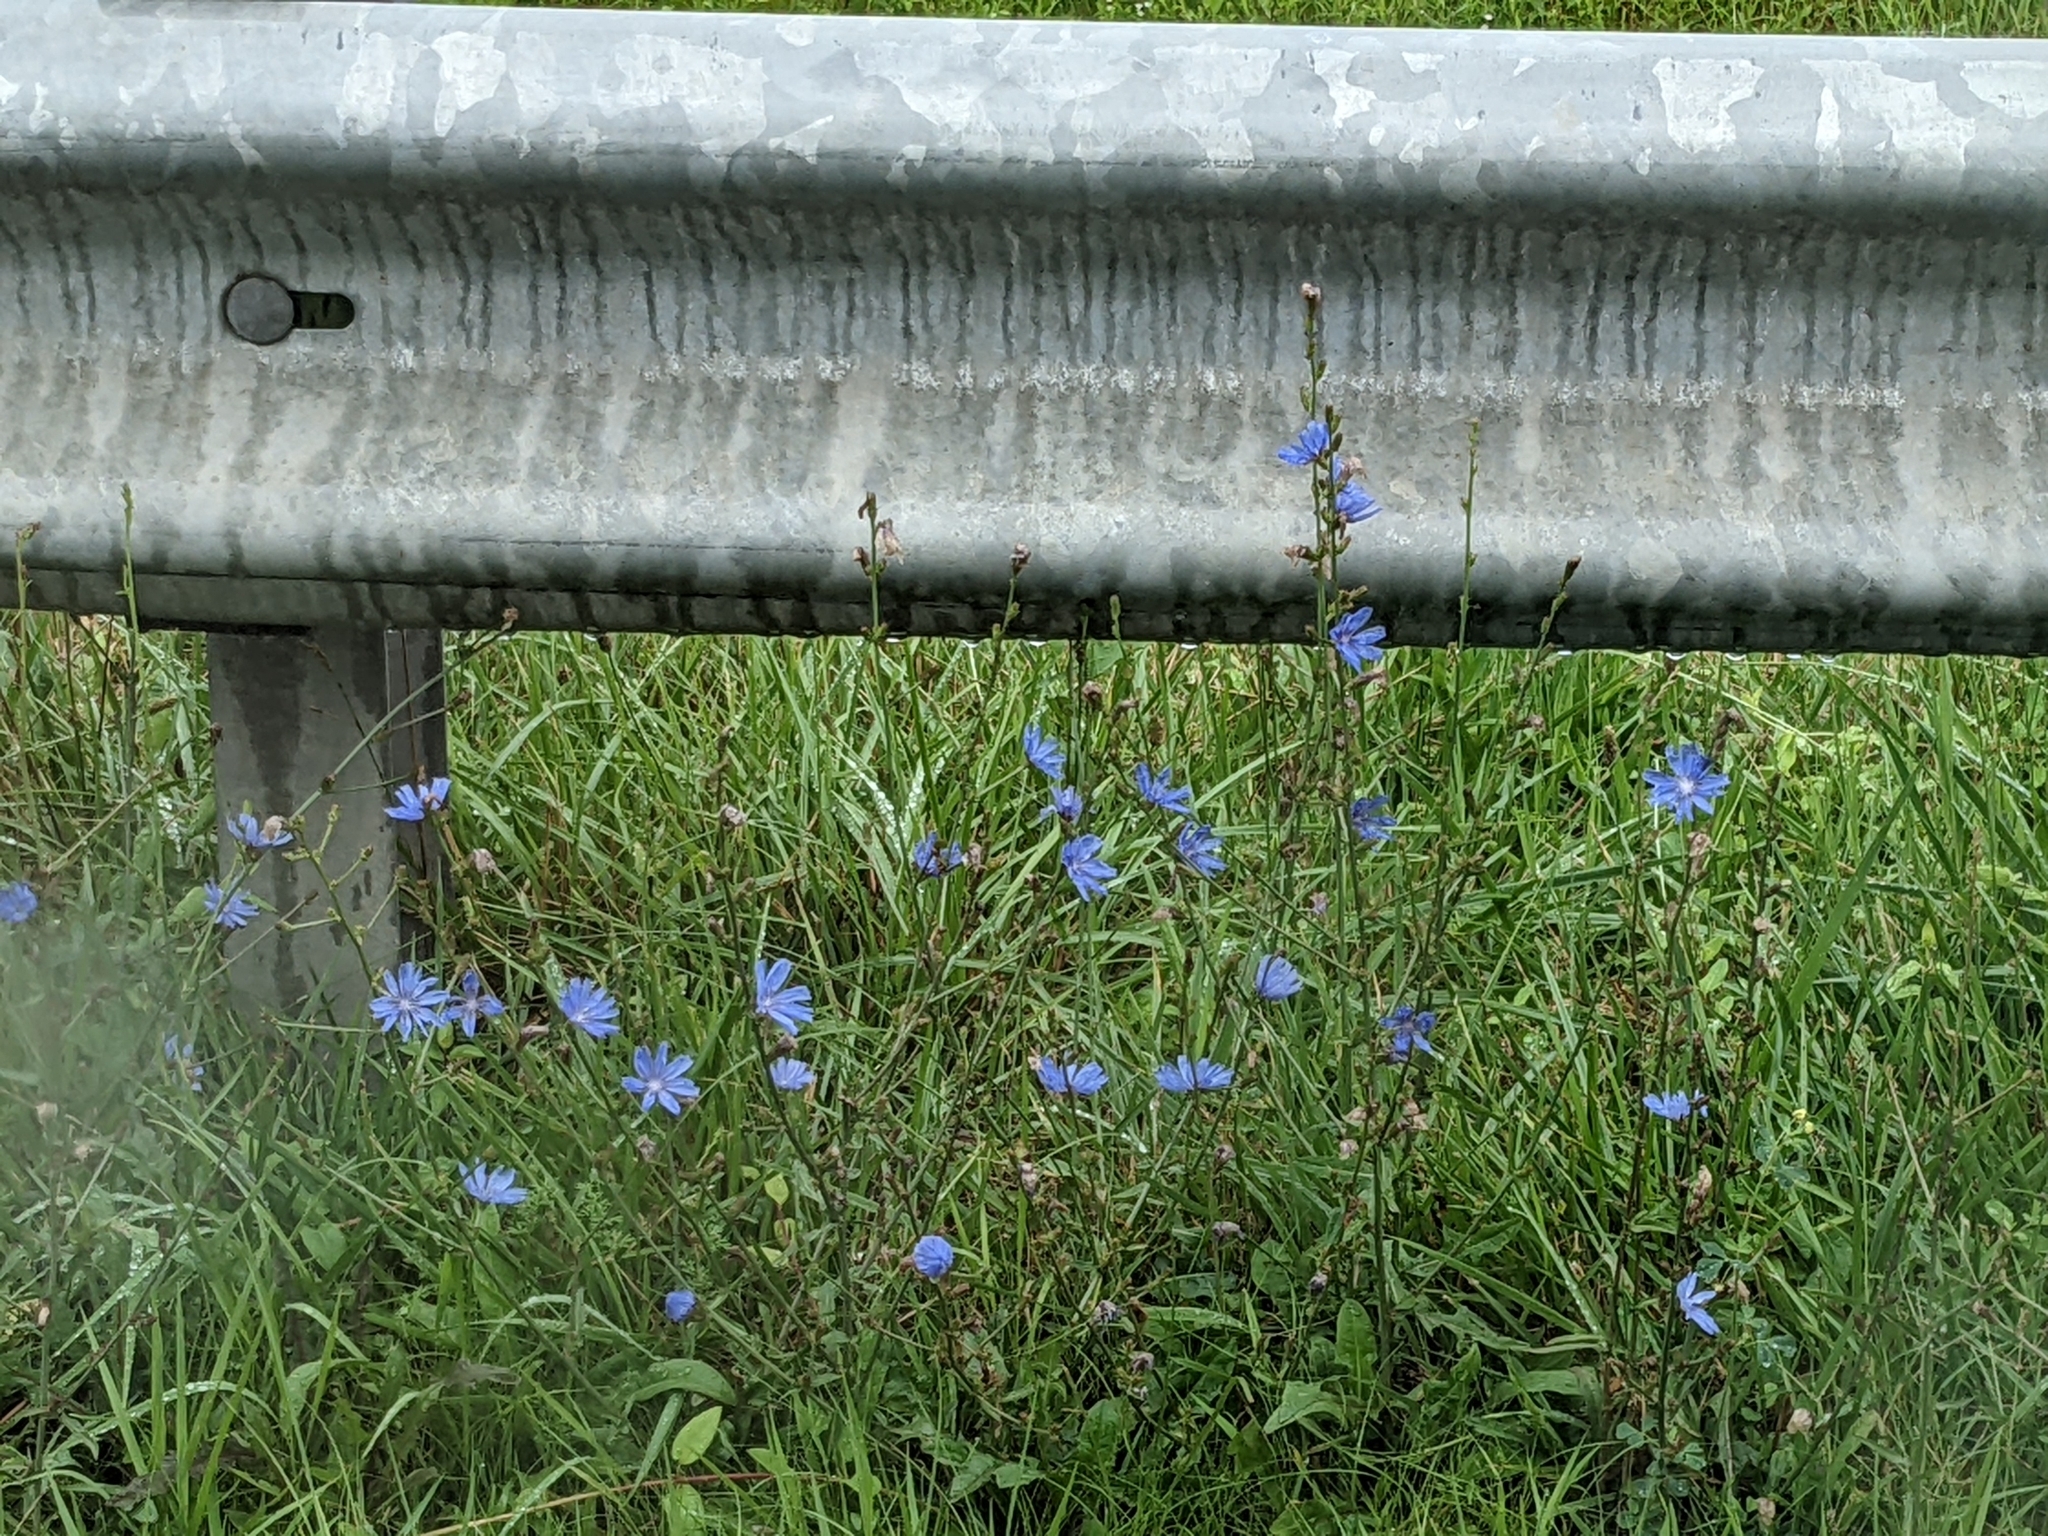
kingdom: Plantae
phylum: Tracheophyta
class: Magnoliopsida
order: Asterales
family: Asteraceae
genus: Cichorium
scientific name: Cichorium intybus
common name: Chicory
